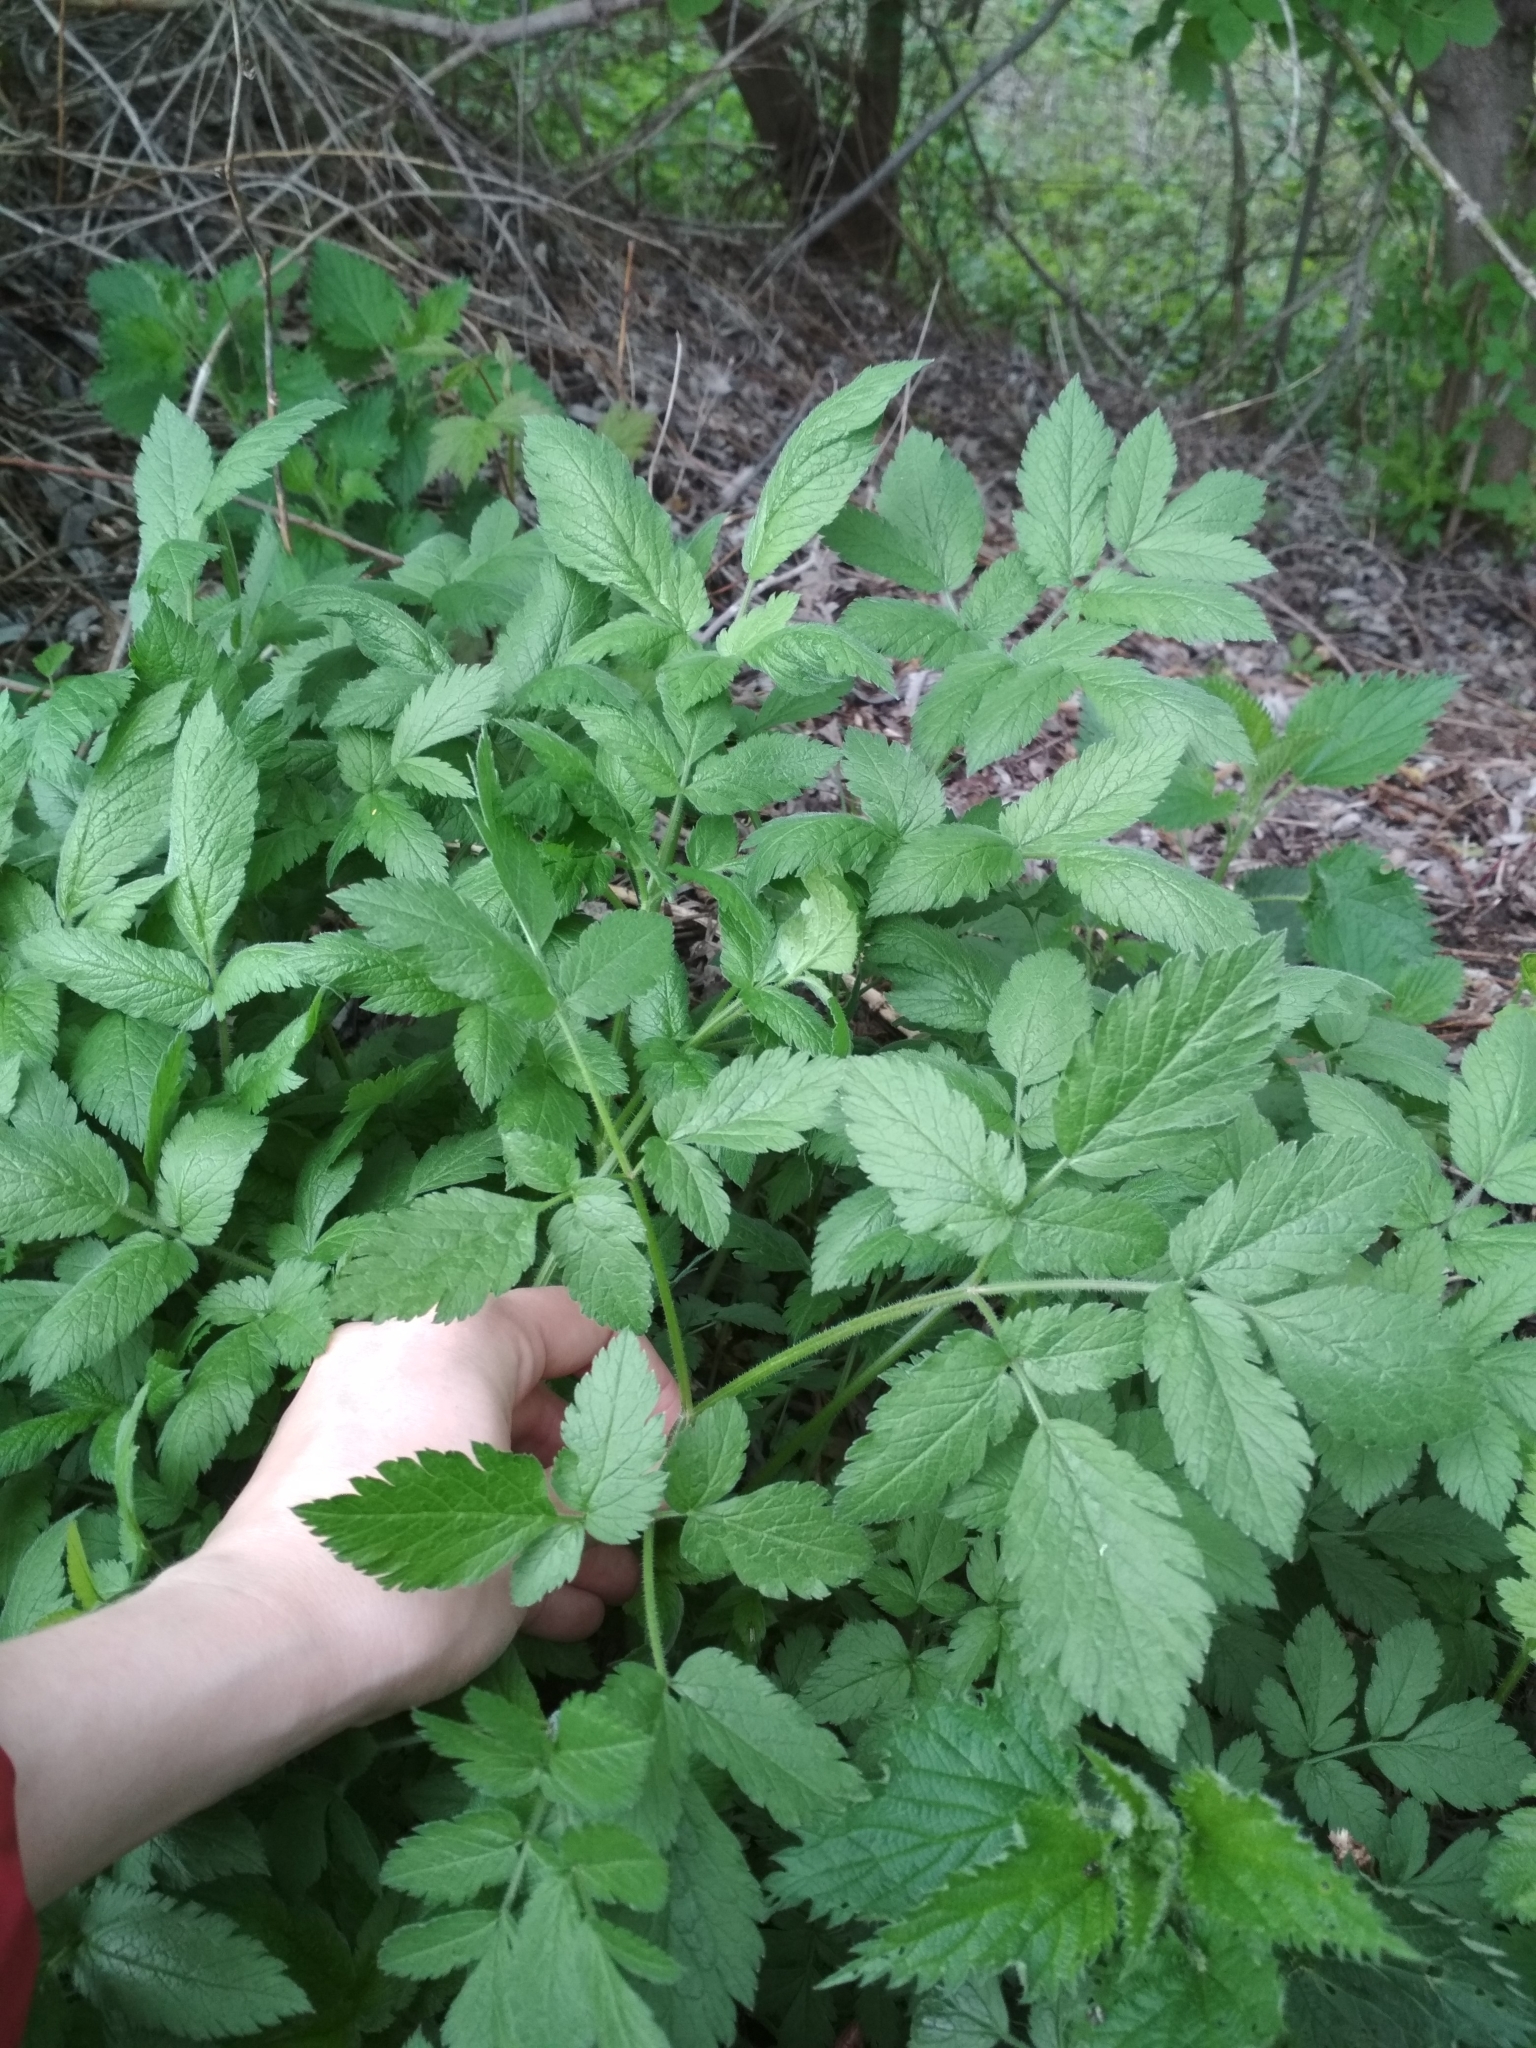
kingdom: Plantae
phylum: Tracheophyta
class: Magnoliopsida
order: Apiales
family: Apiaceae
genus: Chaerophyllum
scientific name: Chaerophyllum aromaticum
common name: Broadleaf chervil
